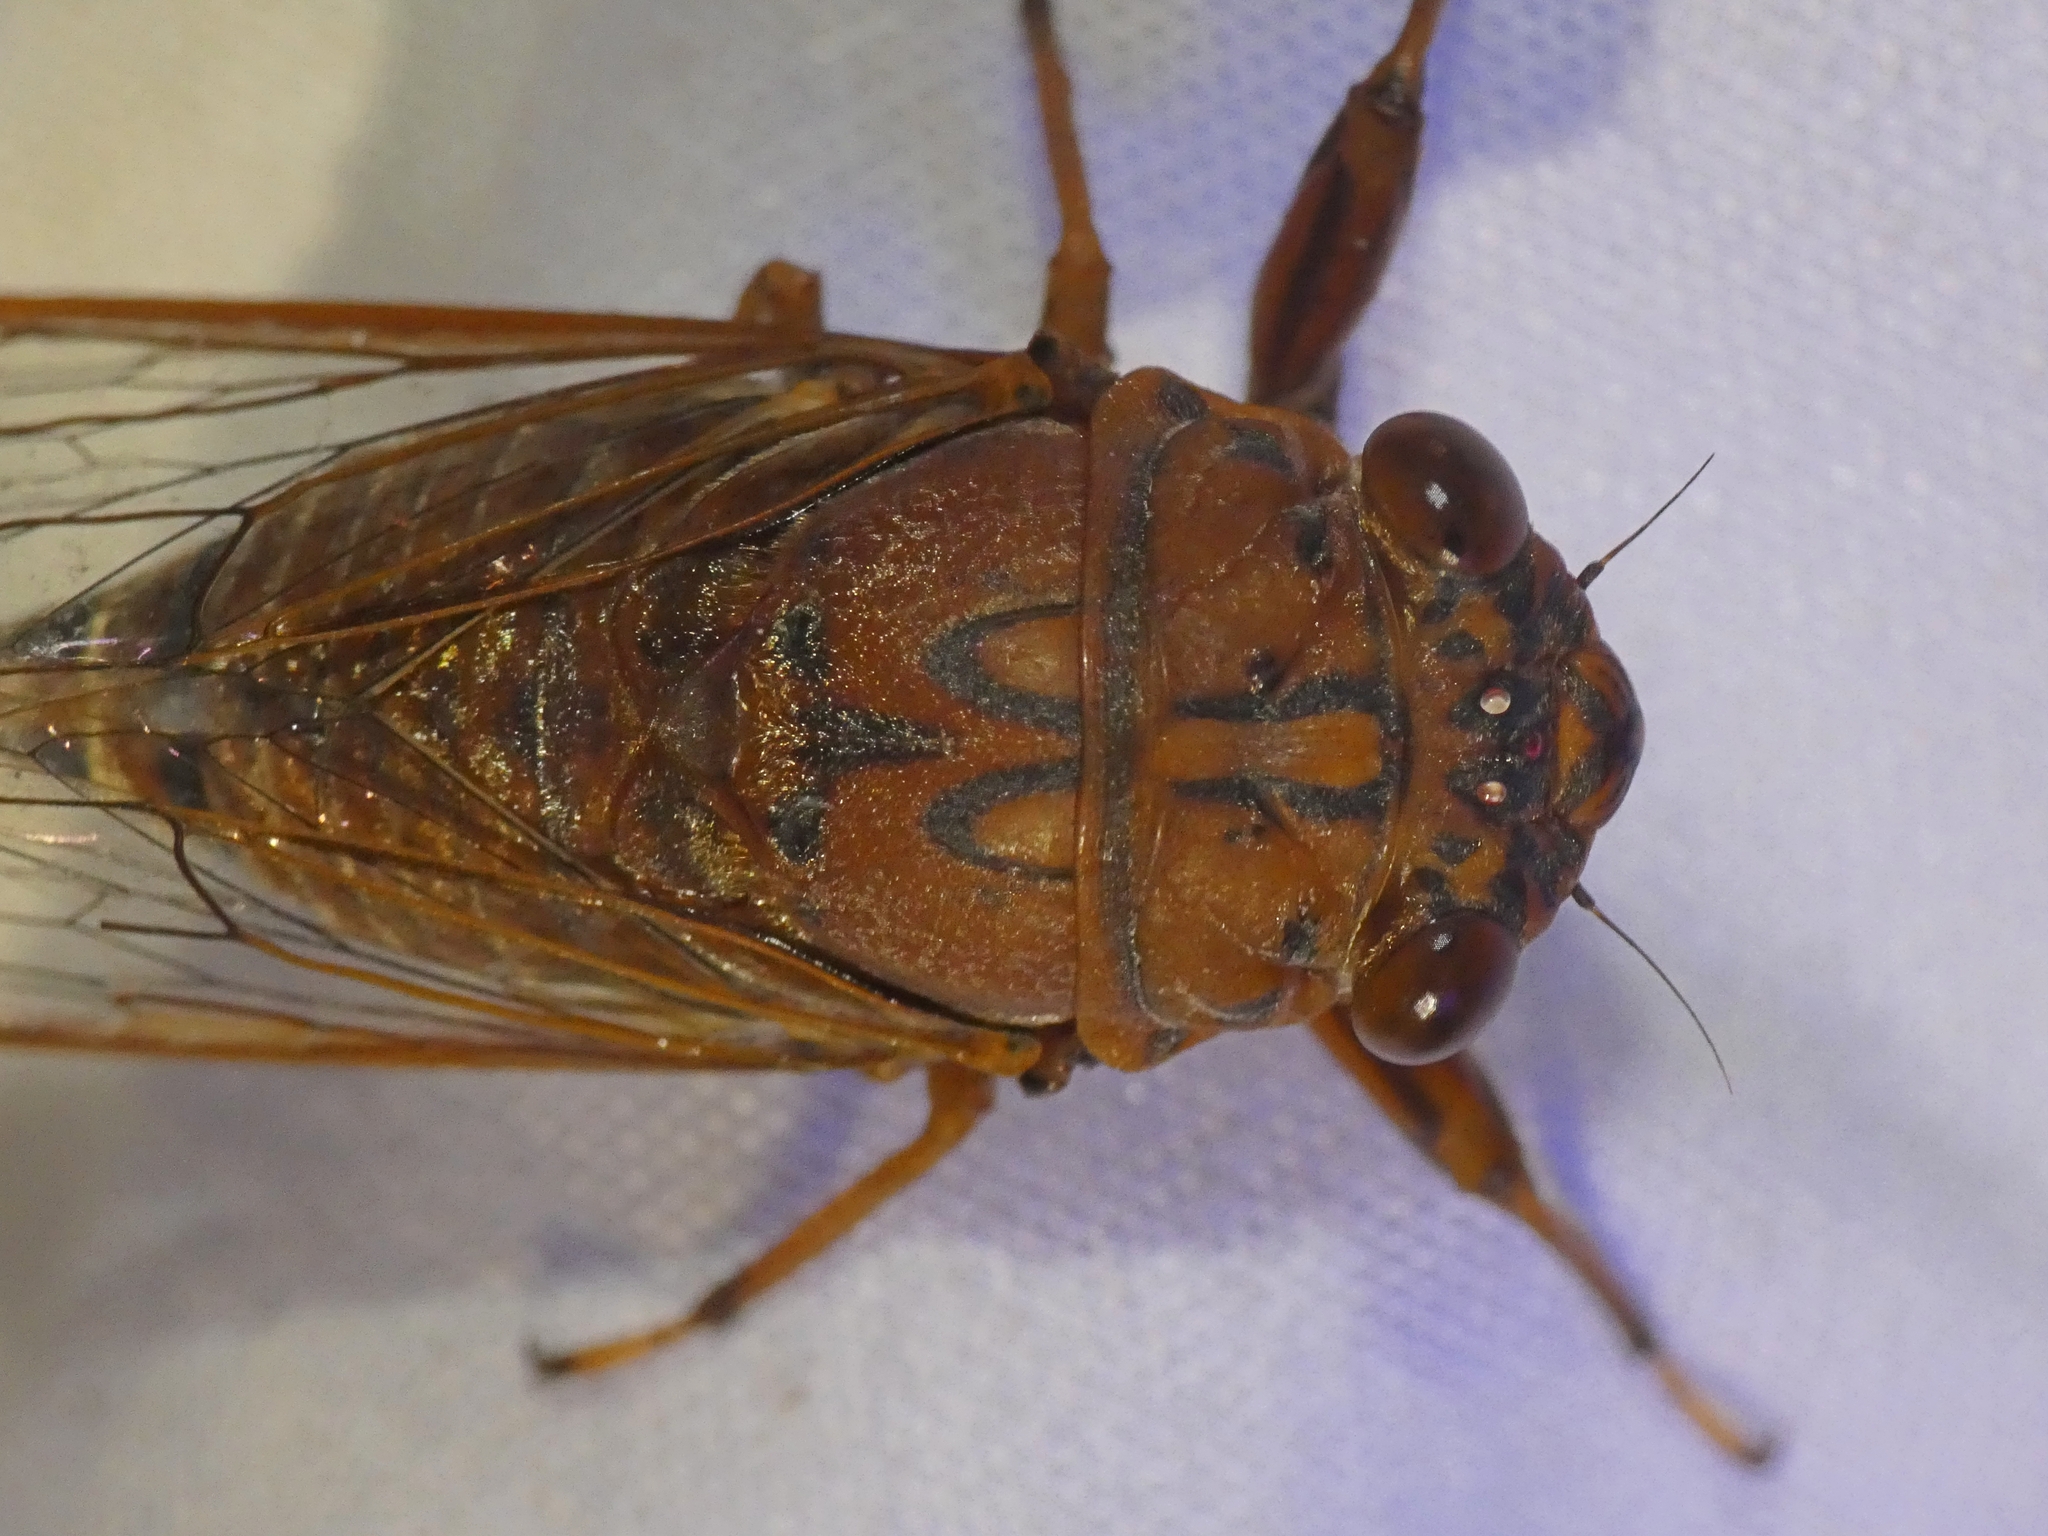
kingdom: Animalia
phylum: Arthropoda
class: Insecta
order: Hemiptera
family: Cicadidae
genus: Tamasa
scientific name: Tamasa doddi
